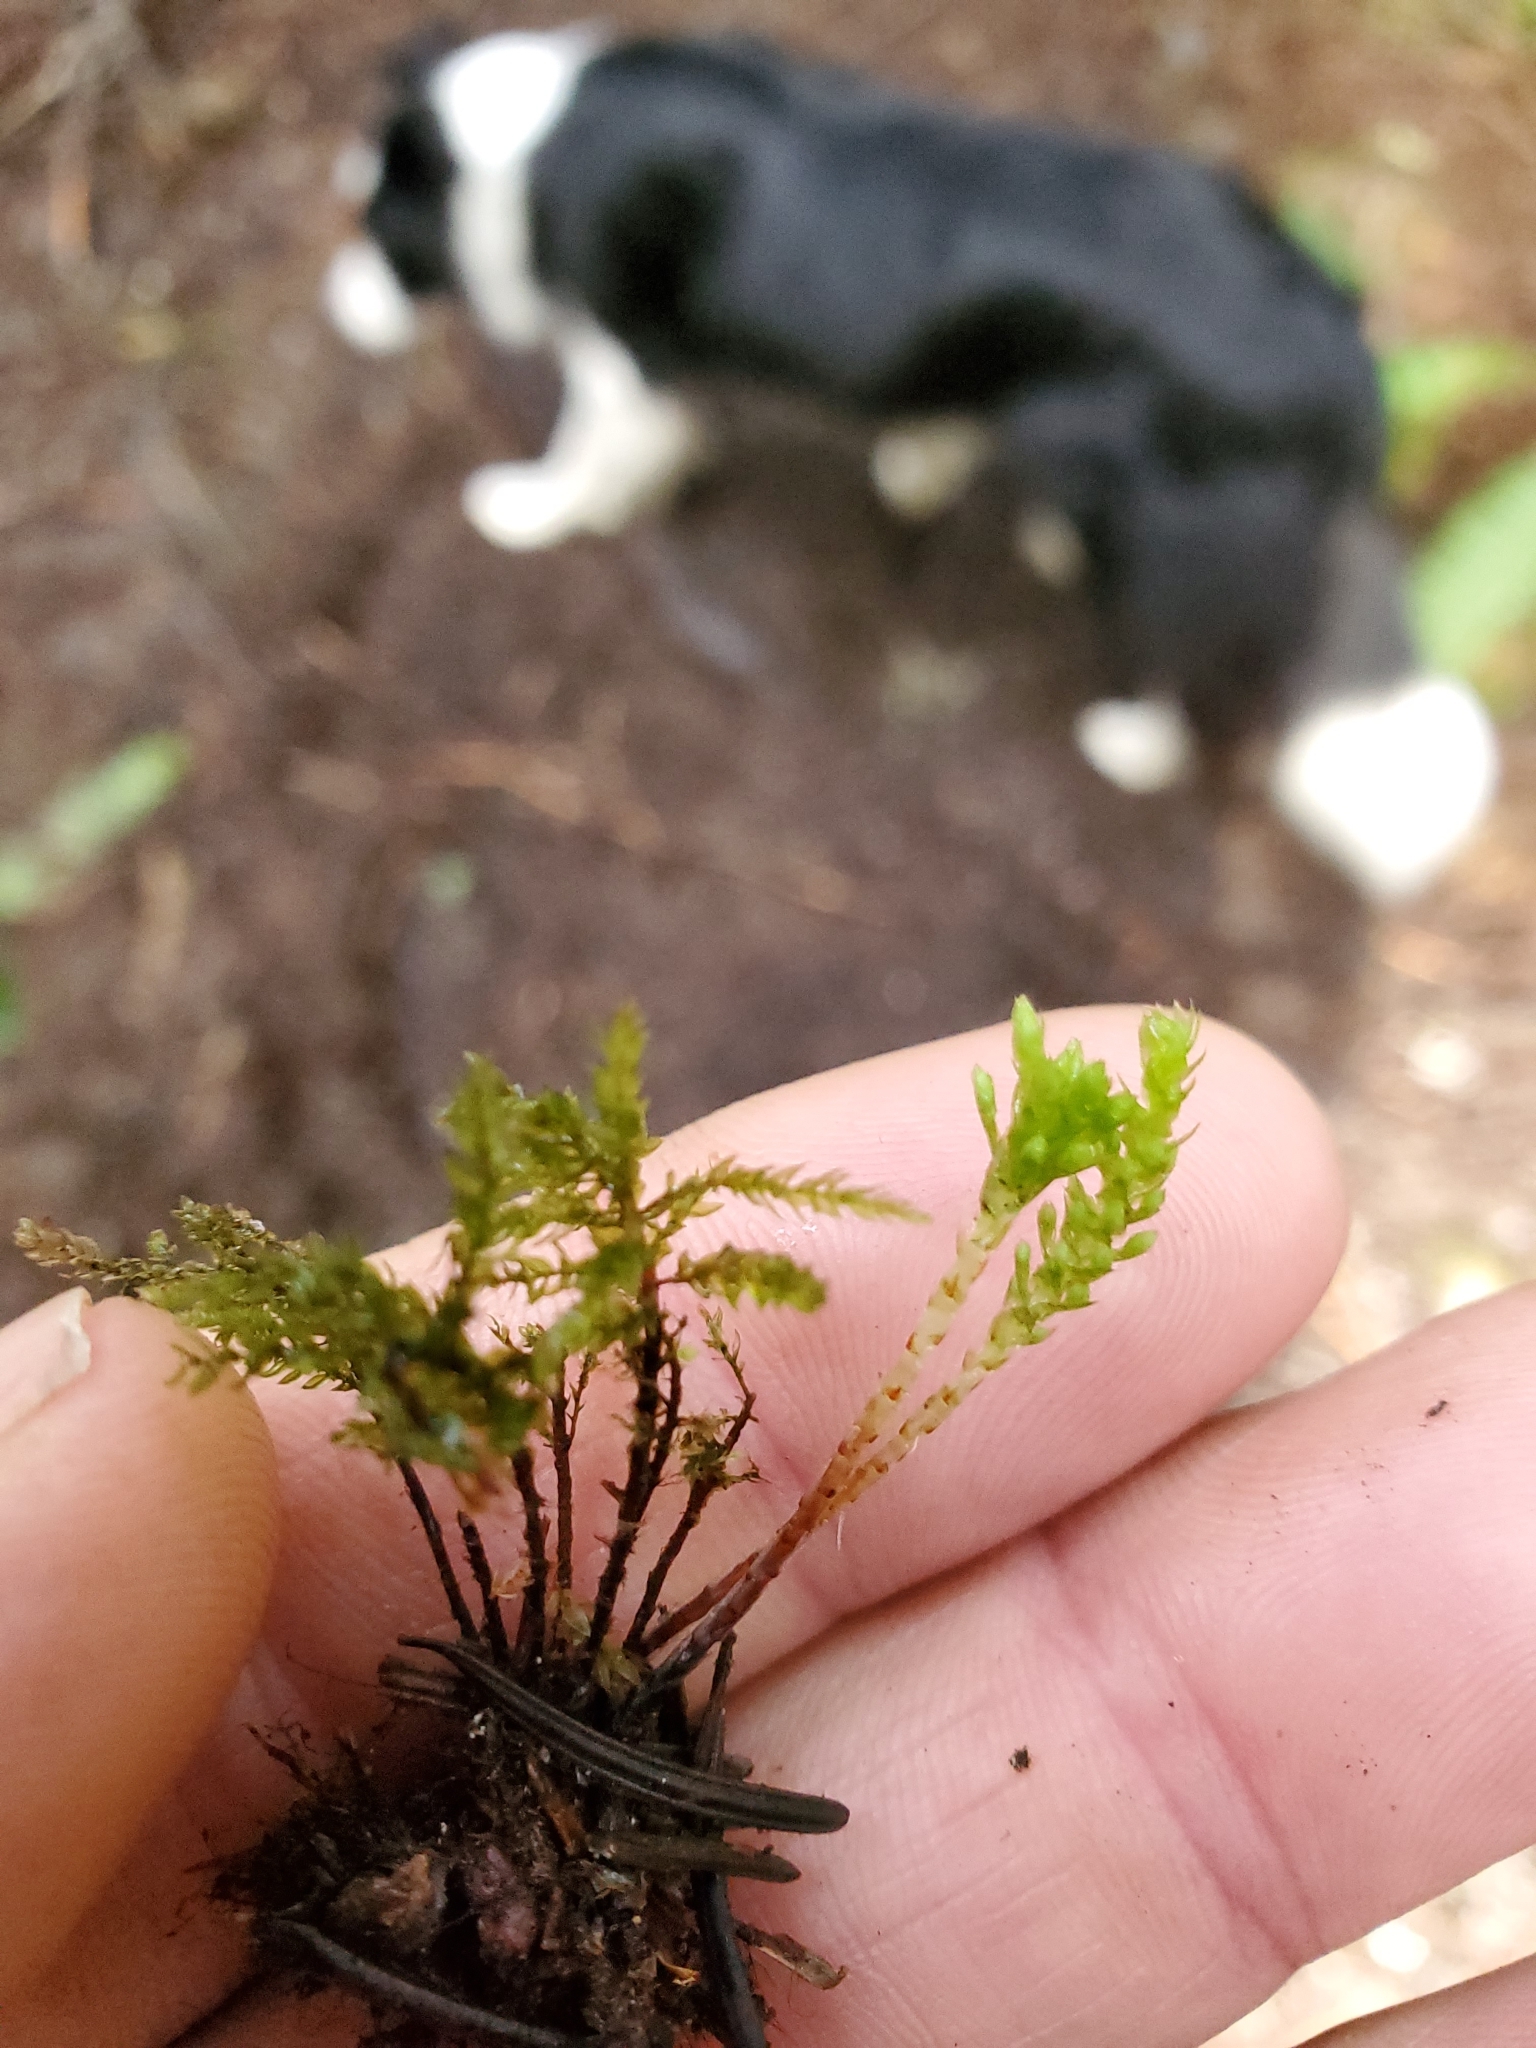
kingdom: Plantae
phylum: Bryophyta
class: Bryopsida
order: Bryales
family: Mniaceae
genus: Leucolepis
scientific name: Leucolepis acanthoneura
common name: Leucolepis umbrella moss
